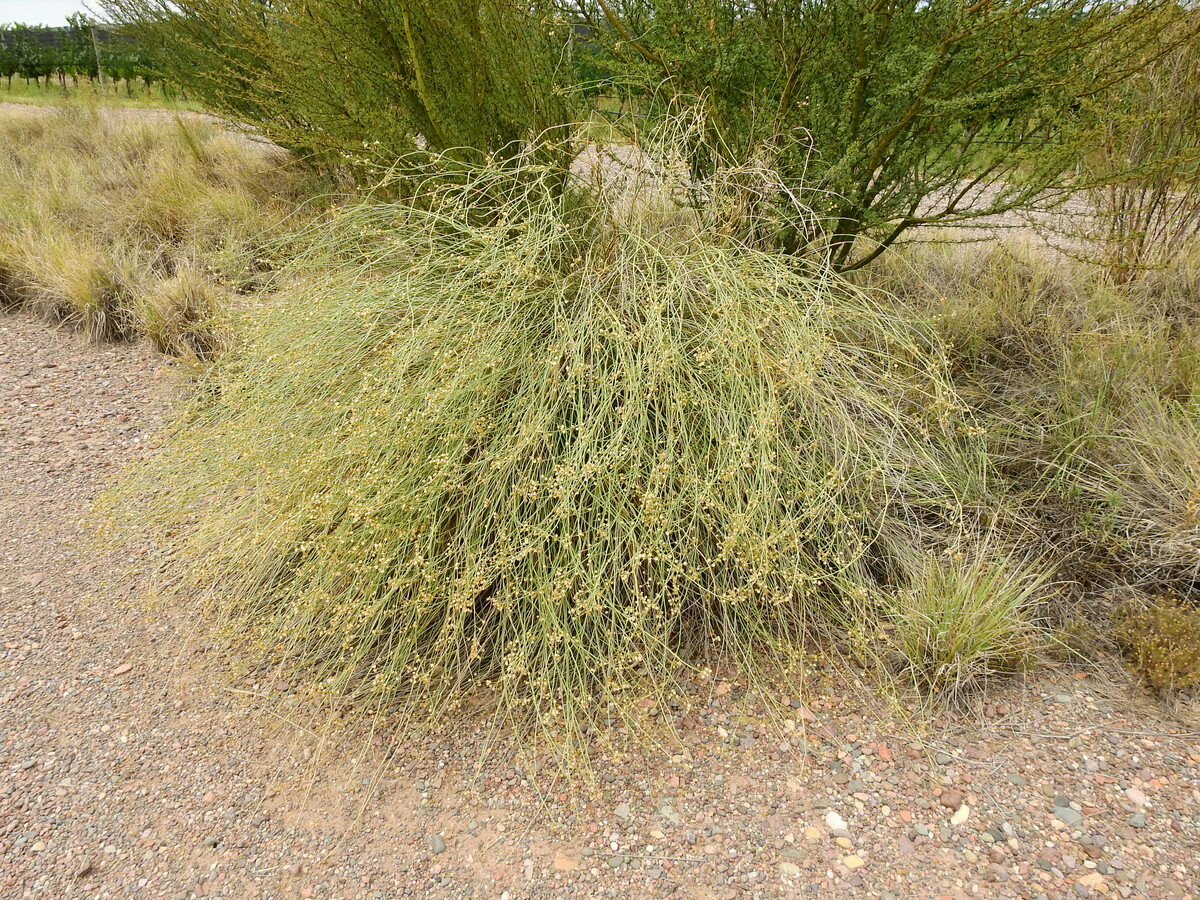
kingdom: Plantae
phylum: Tracheophyta
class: Magnoliopsida
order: Asterales
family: Asteraceae
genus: Pseudobaccharis
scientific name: Pseudobaccharis retamoides
